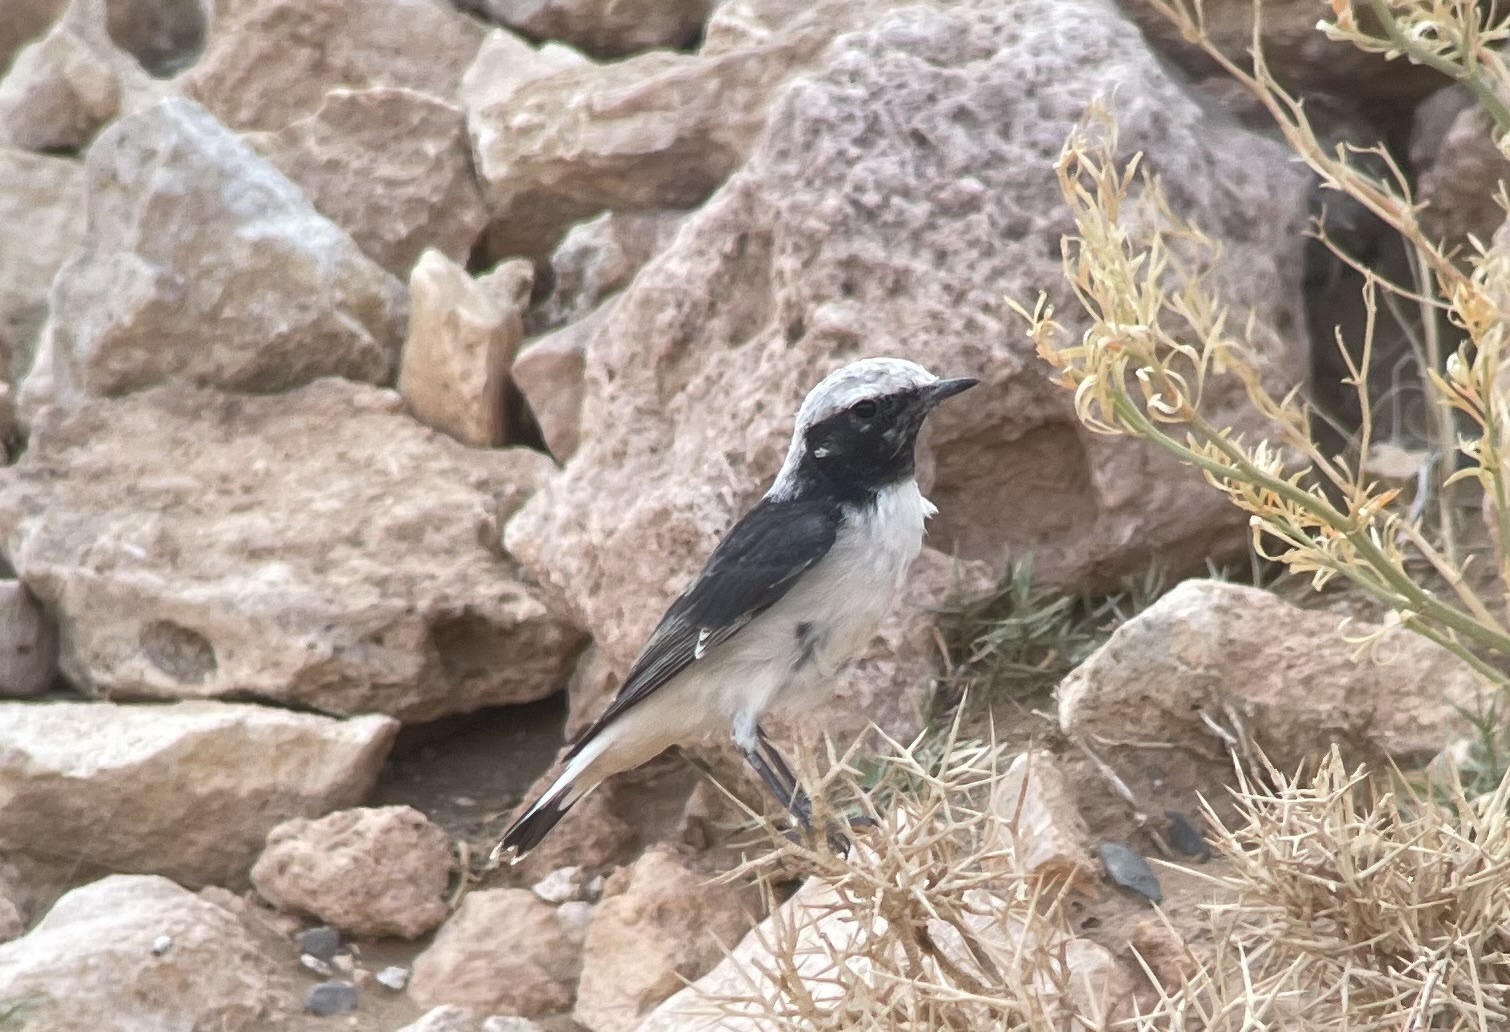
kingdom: Animalia
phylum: Chordata
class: Aves
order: Passeriformes
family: Muscicapidae
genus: Oenanthe
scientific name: Oenanthe lugens
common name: Mourning wheatear
